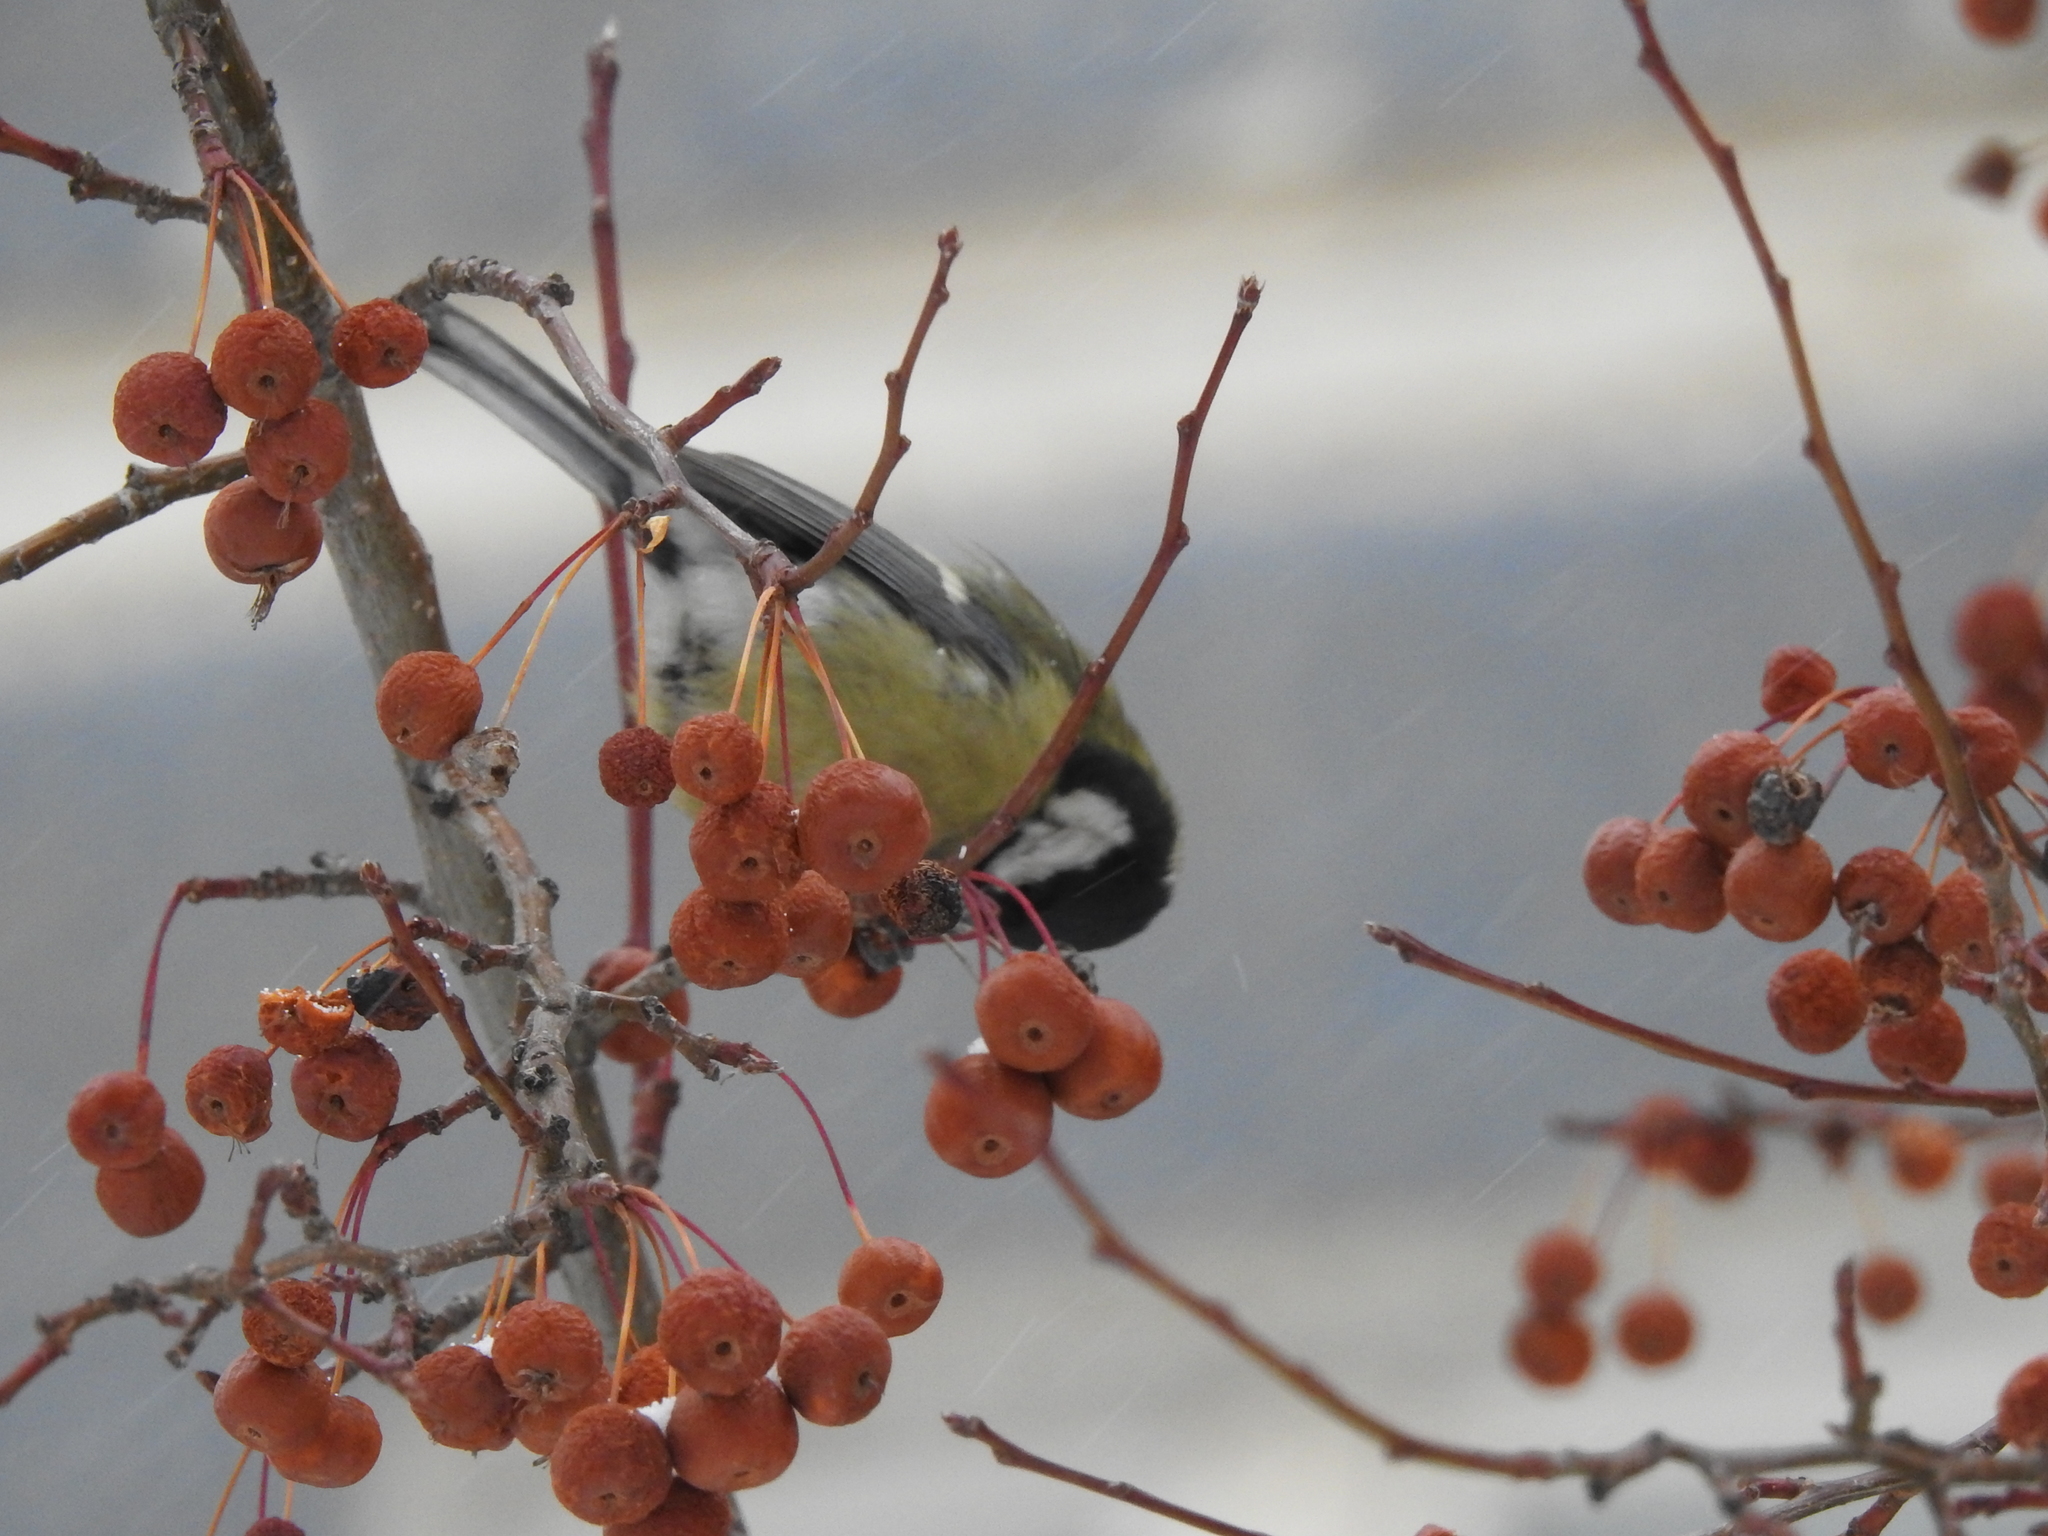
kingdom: Animalia
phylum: Chordata
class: Aves
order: Passeriformes
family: Paridae
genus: Parus
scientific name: Parus major
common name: Great tit
